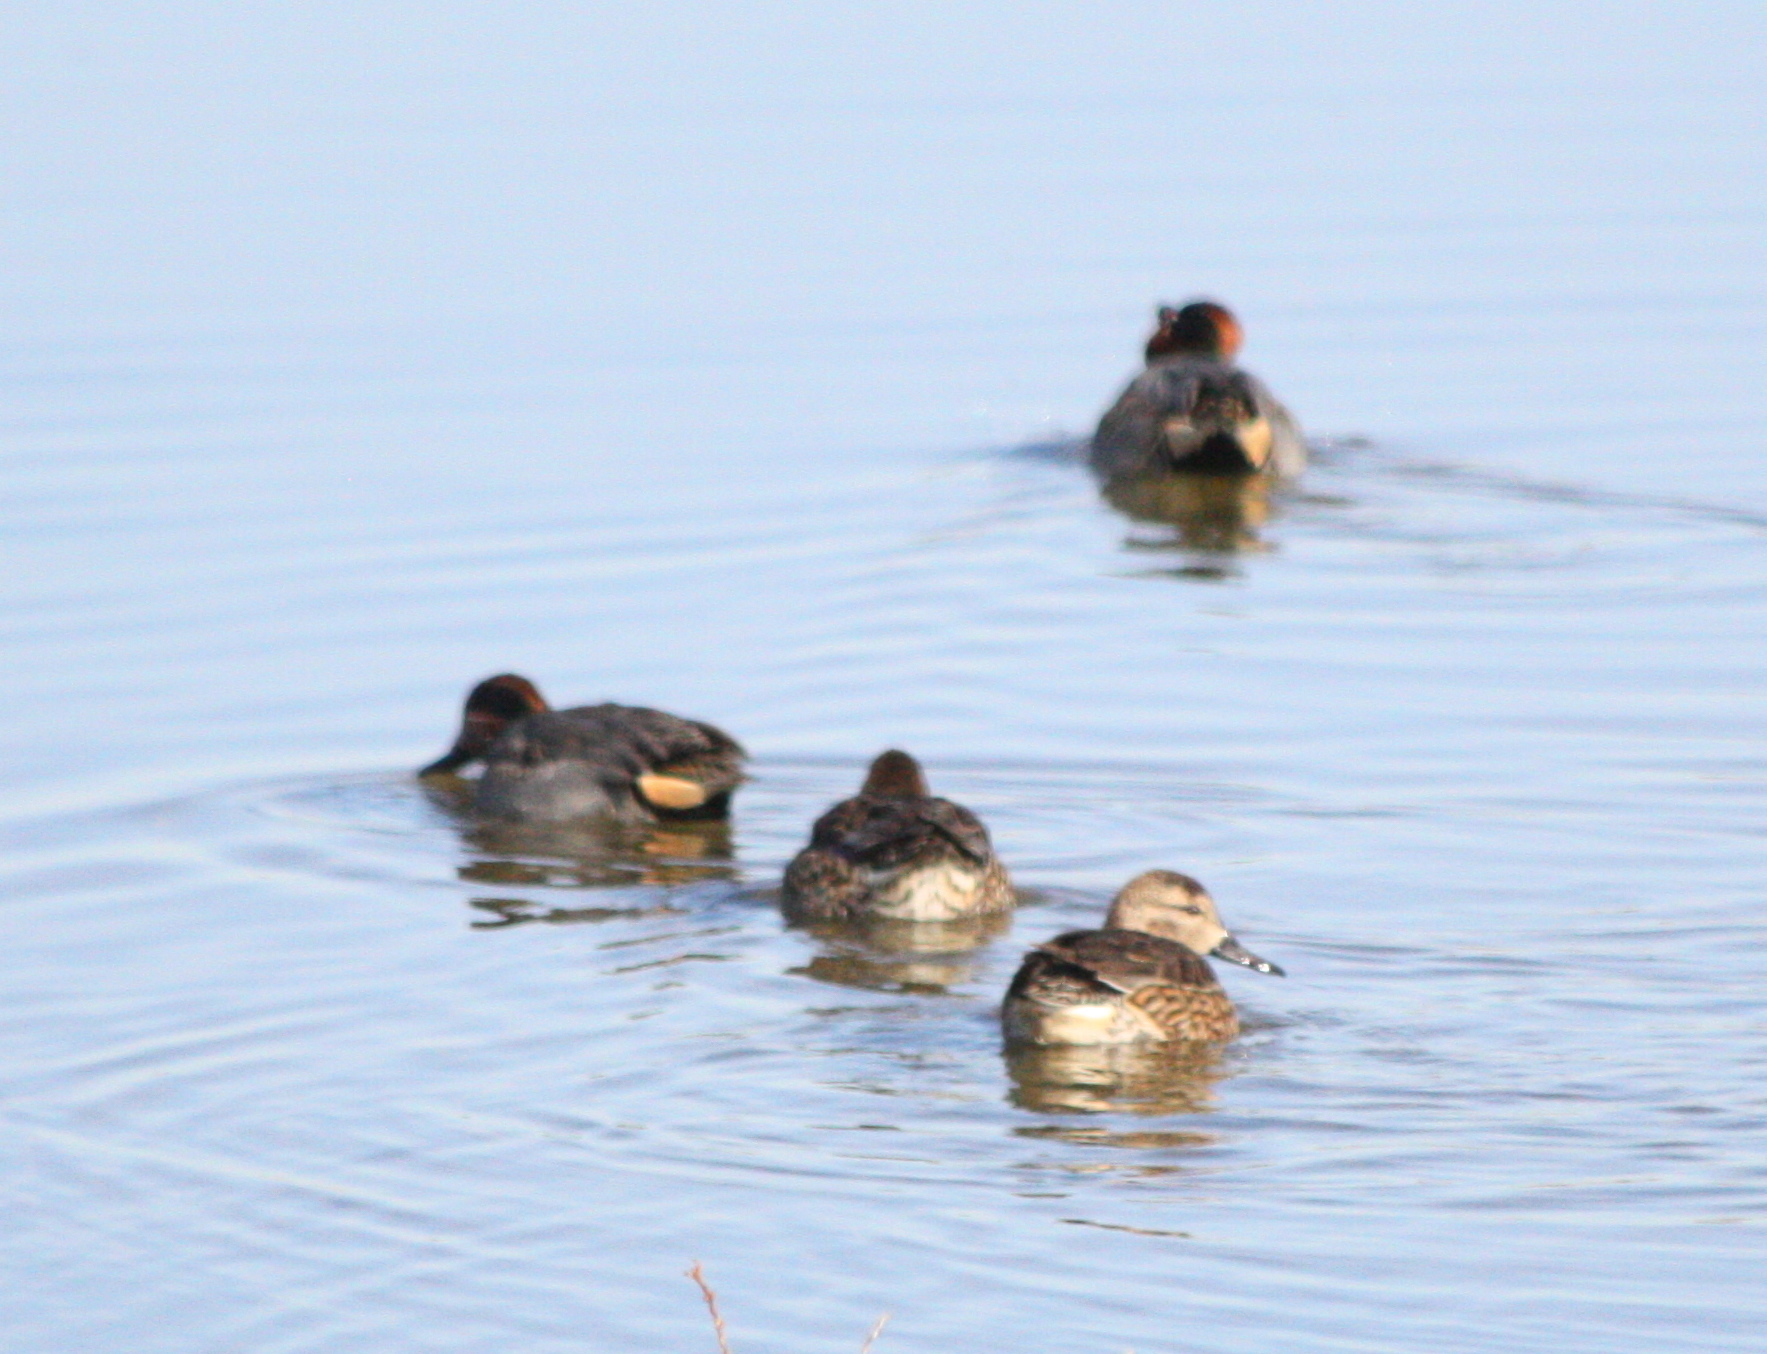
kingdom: Animalia
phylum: Chordata
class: Aves
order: Anseriformes
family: Anatidae
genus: Anas
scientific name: Anas crecca
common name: Eurasian teal
